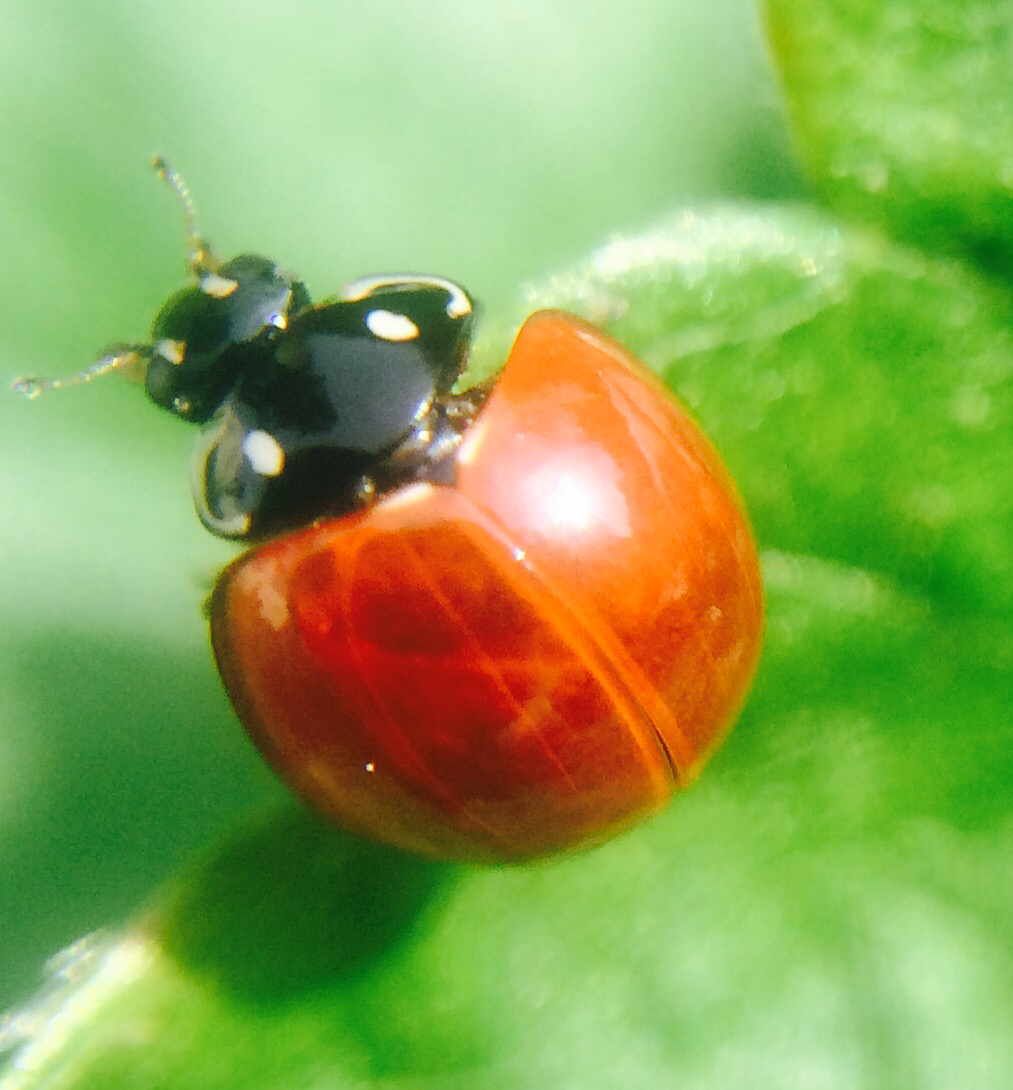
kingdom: Animalia
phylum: Arthropoda
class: Insecta
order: Coleoptera
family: Coccinellidae
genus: Cycloneda
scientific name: Cycloneda sanguinea
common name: Ladybird beetle
